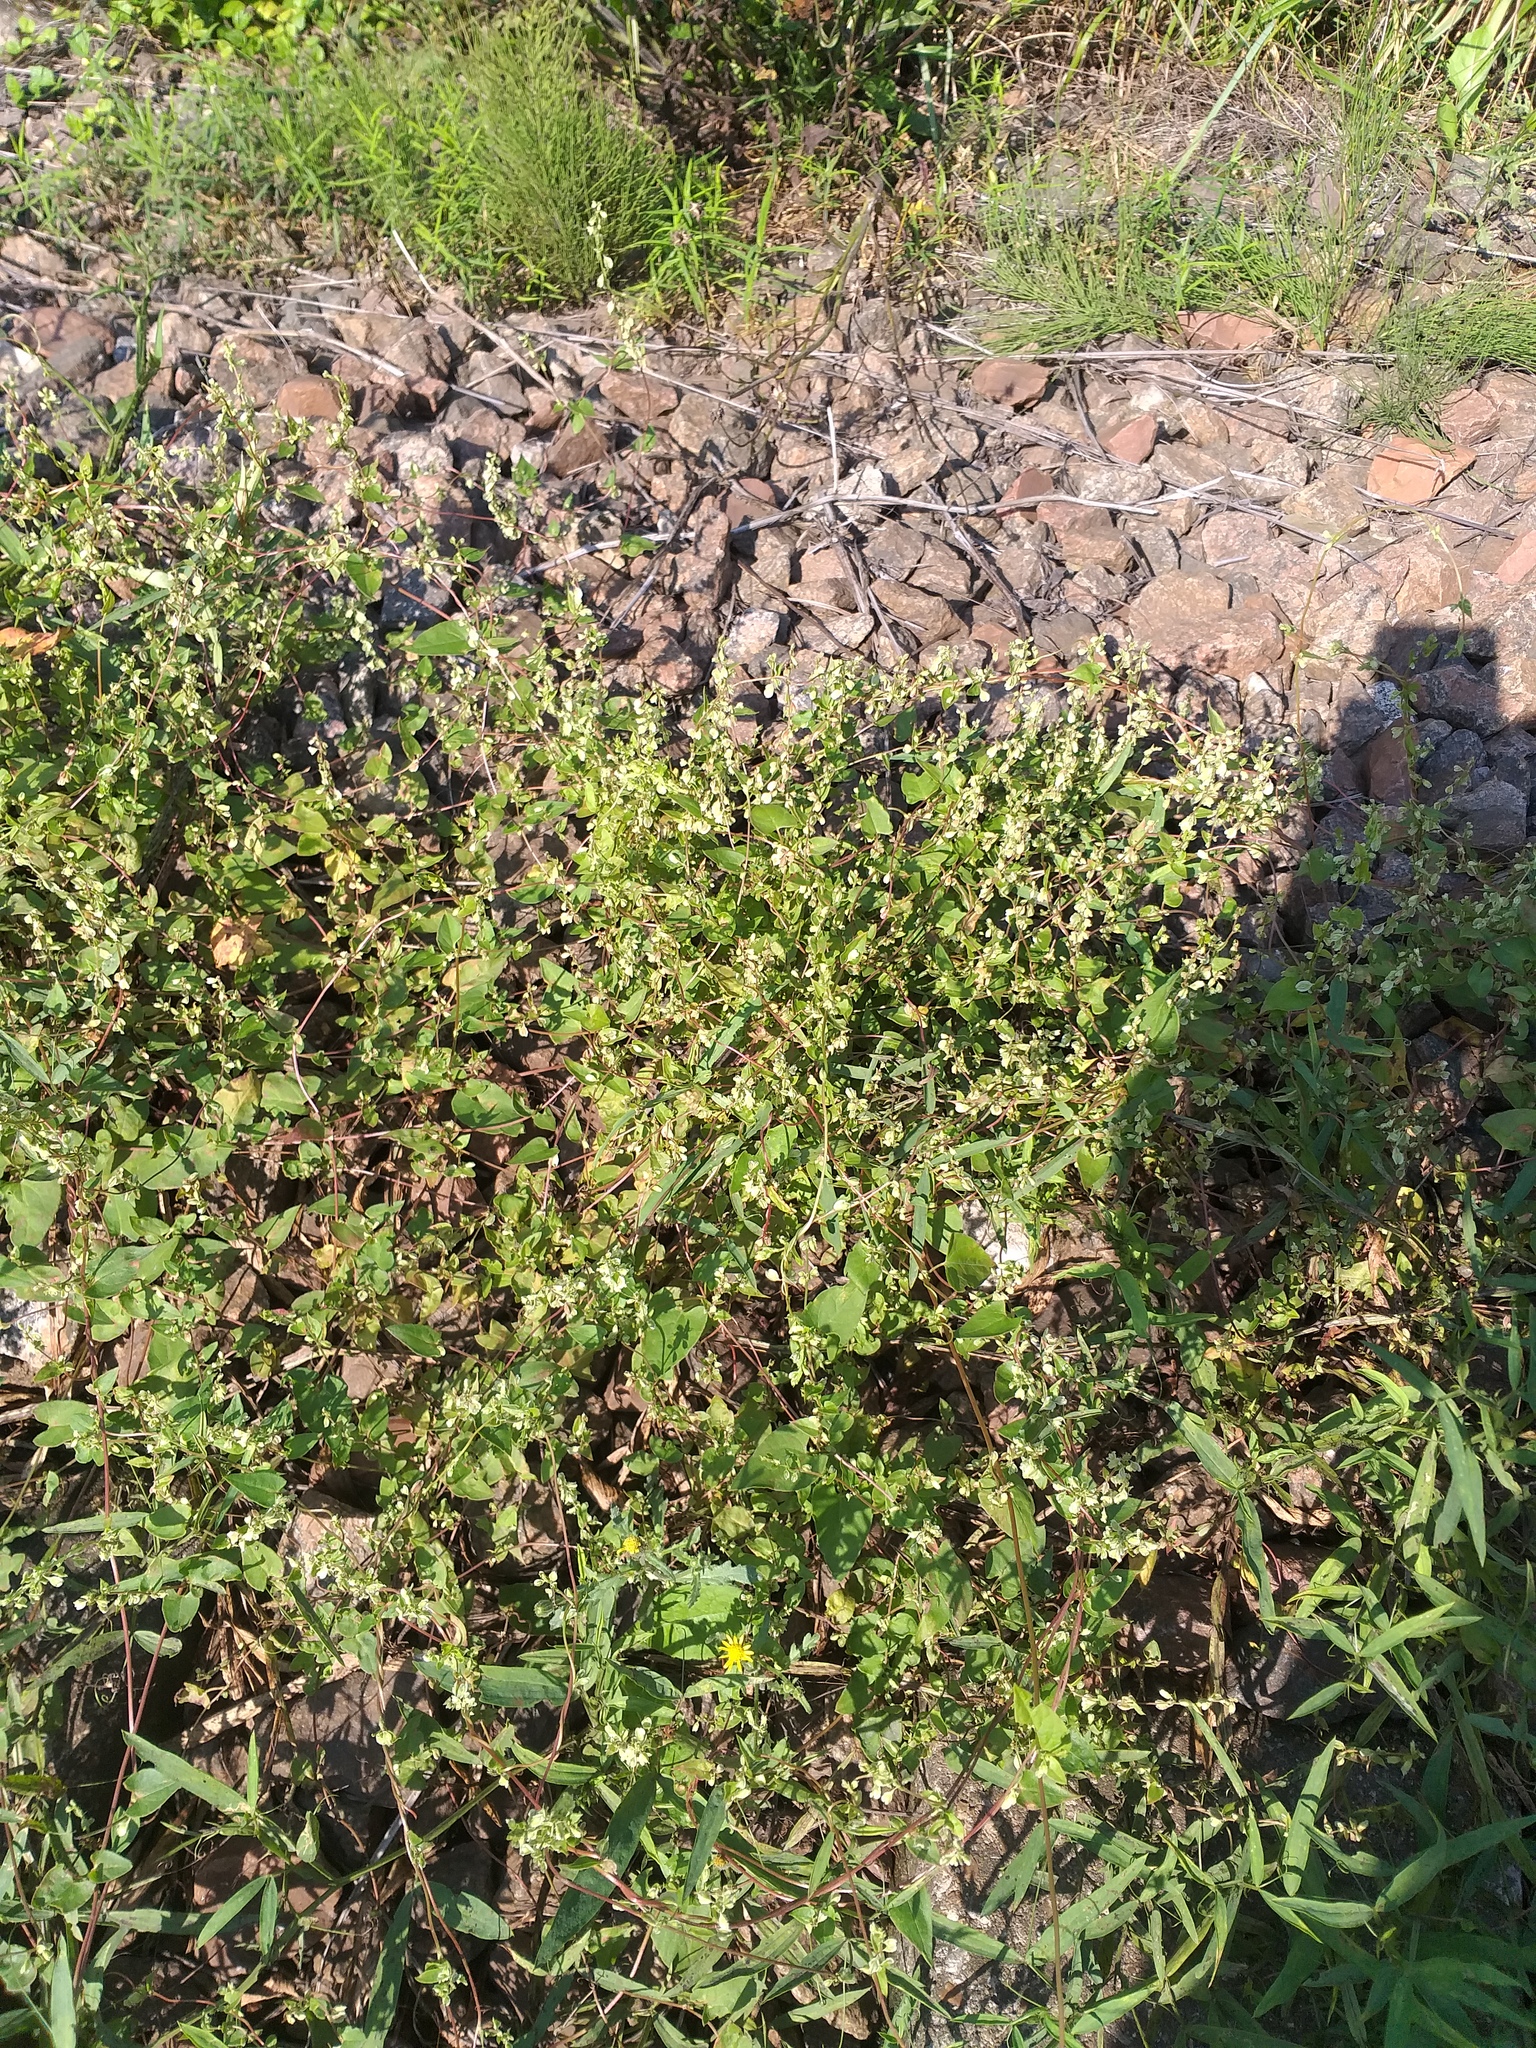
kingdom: Plantae
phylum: Tracheophyta
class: Magnoliopsida
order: Caryophyllales
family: Polygonaceae
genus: Fallopia
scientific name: Fallopia dumetorum
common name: Copse-bindweed
